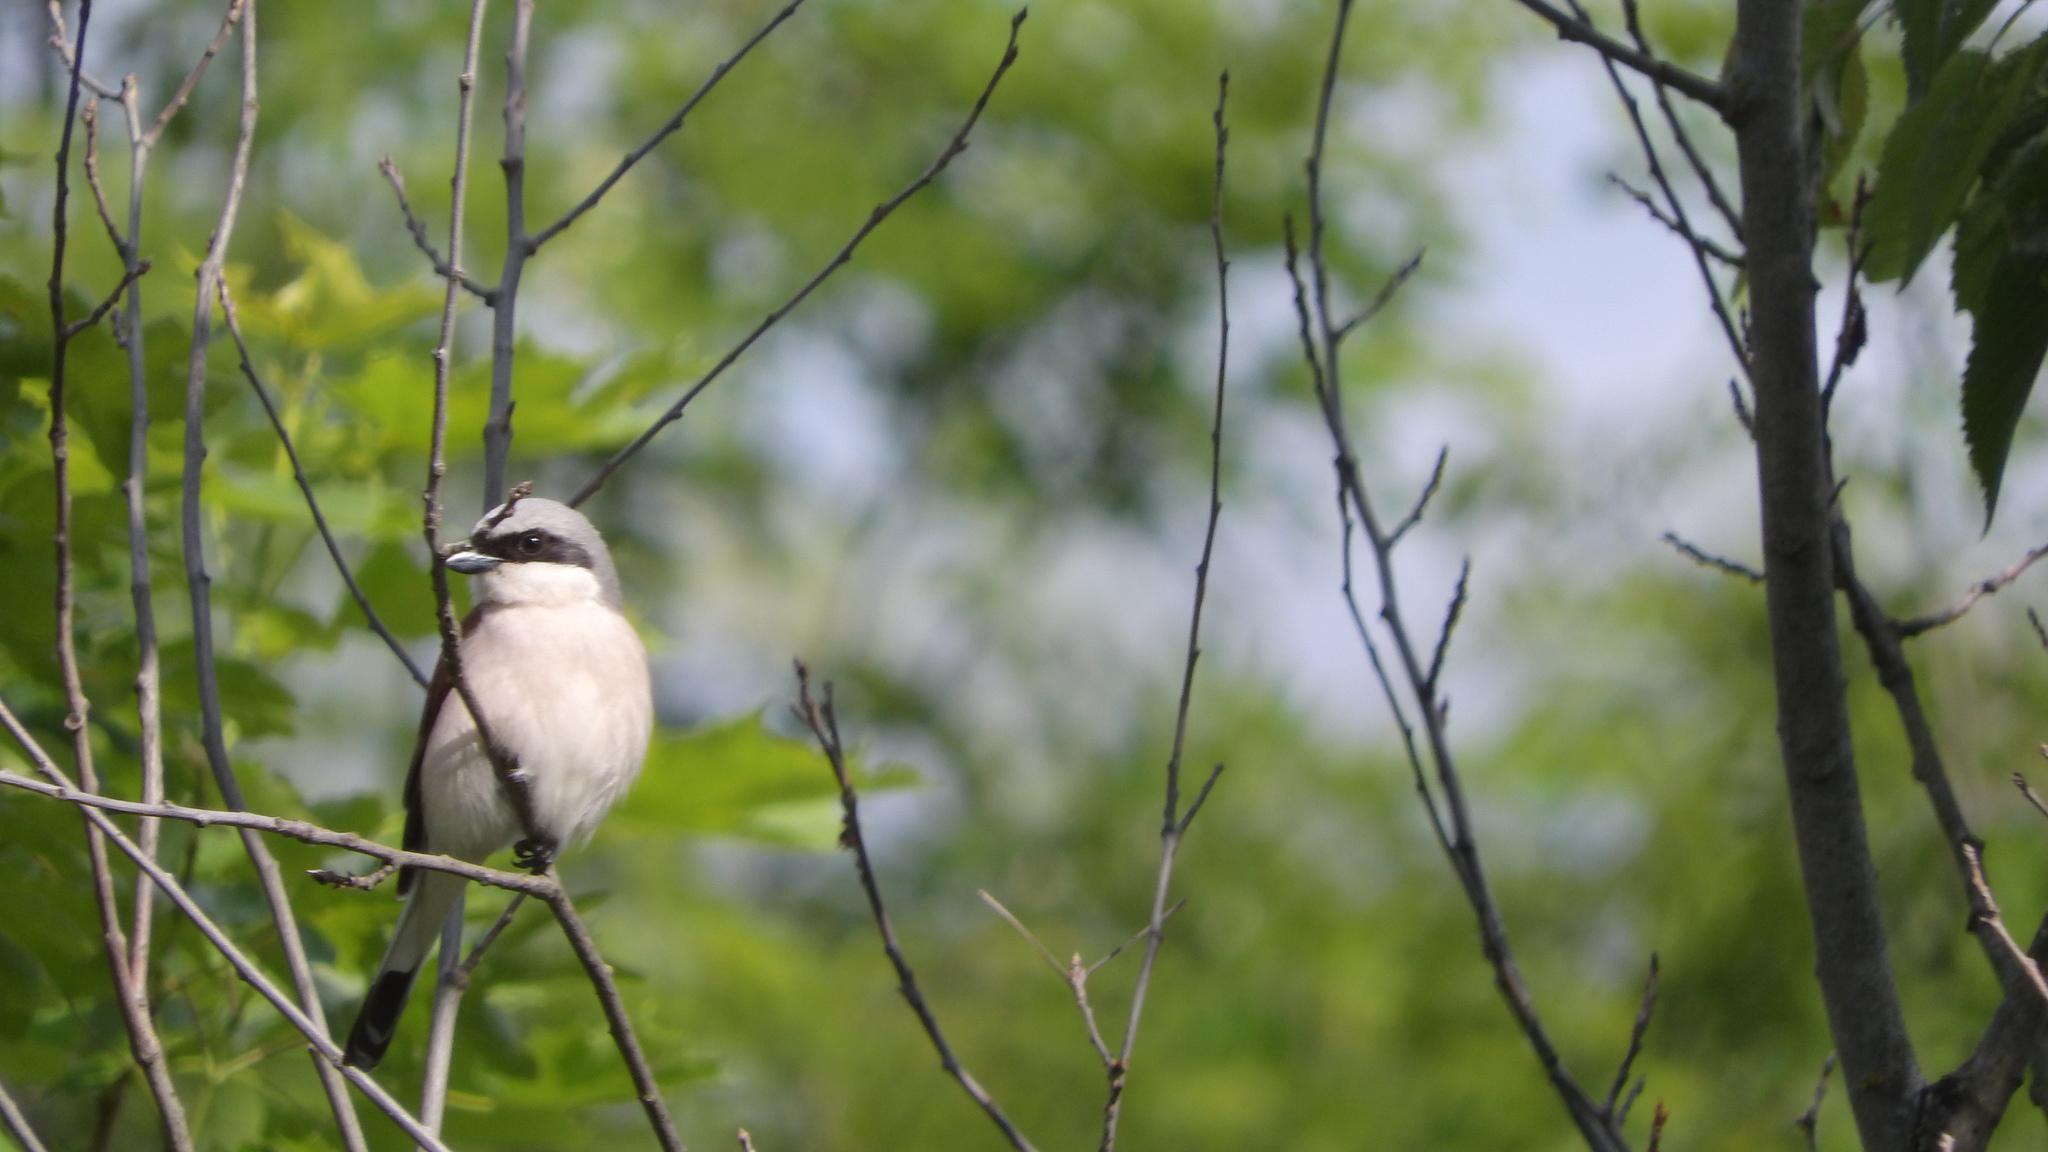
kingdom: Animalia
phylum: Chordata
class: Aves
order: Passeriformes
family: Laniidae
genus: Lanius
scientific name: Lanius collurio
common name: Red-backed shrike
